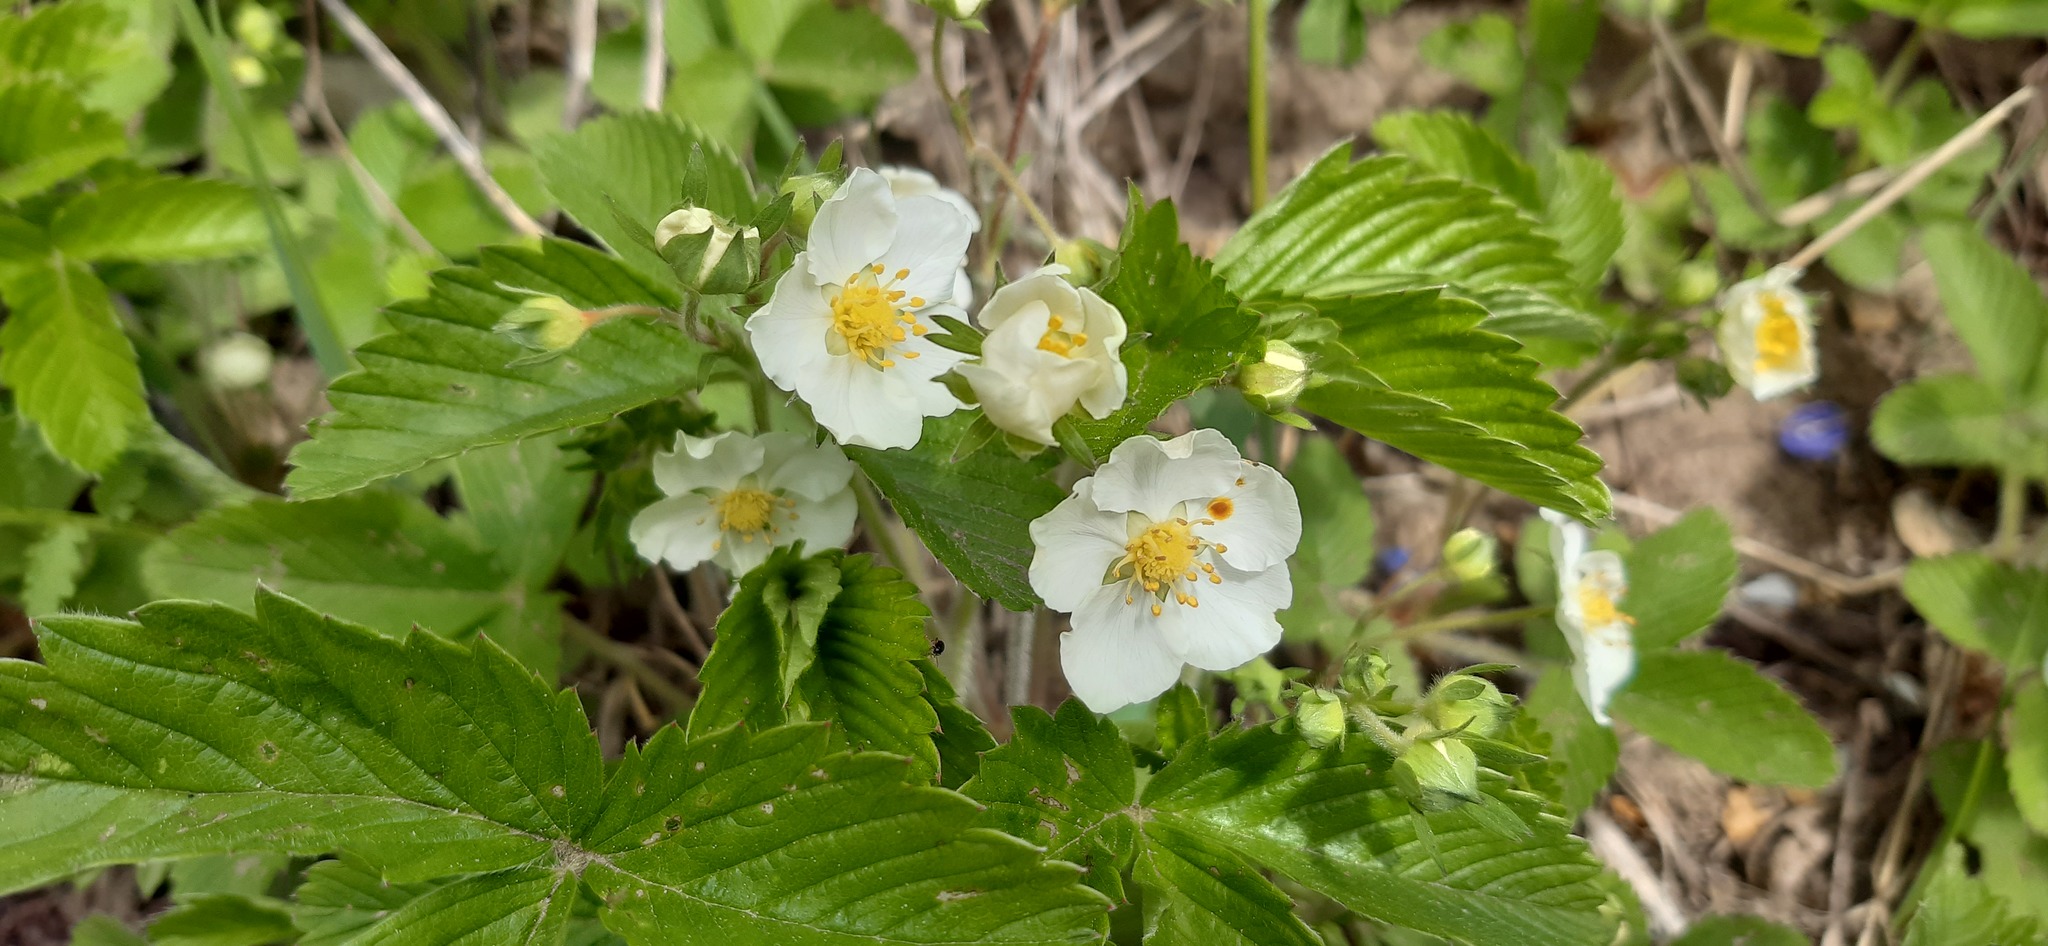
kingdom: Plantae
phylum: Tracheophyta
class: Magnoliopsida
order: Rosales
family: Rosaceae
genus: Fragaria
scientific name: Fragaria moschata
